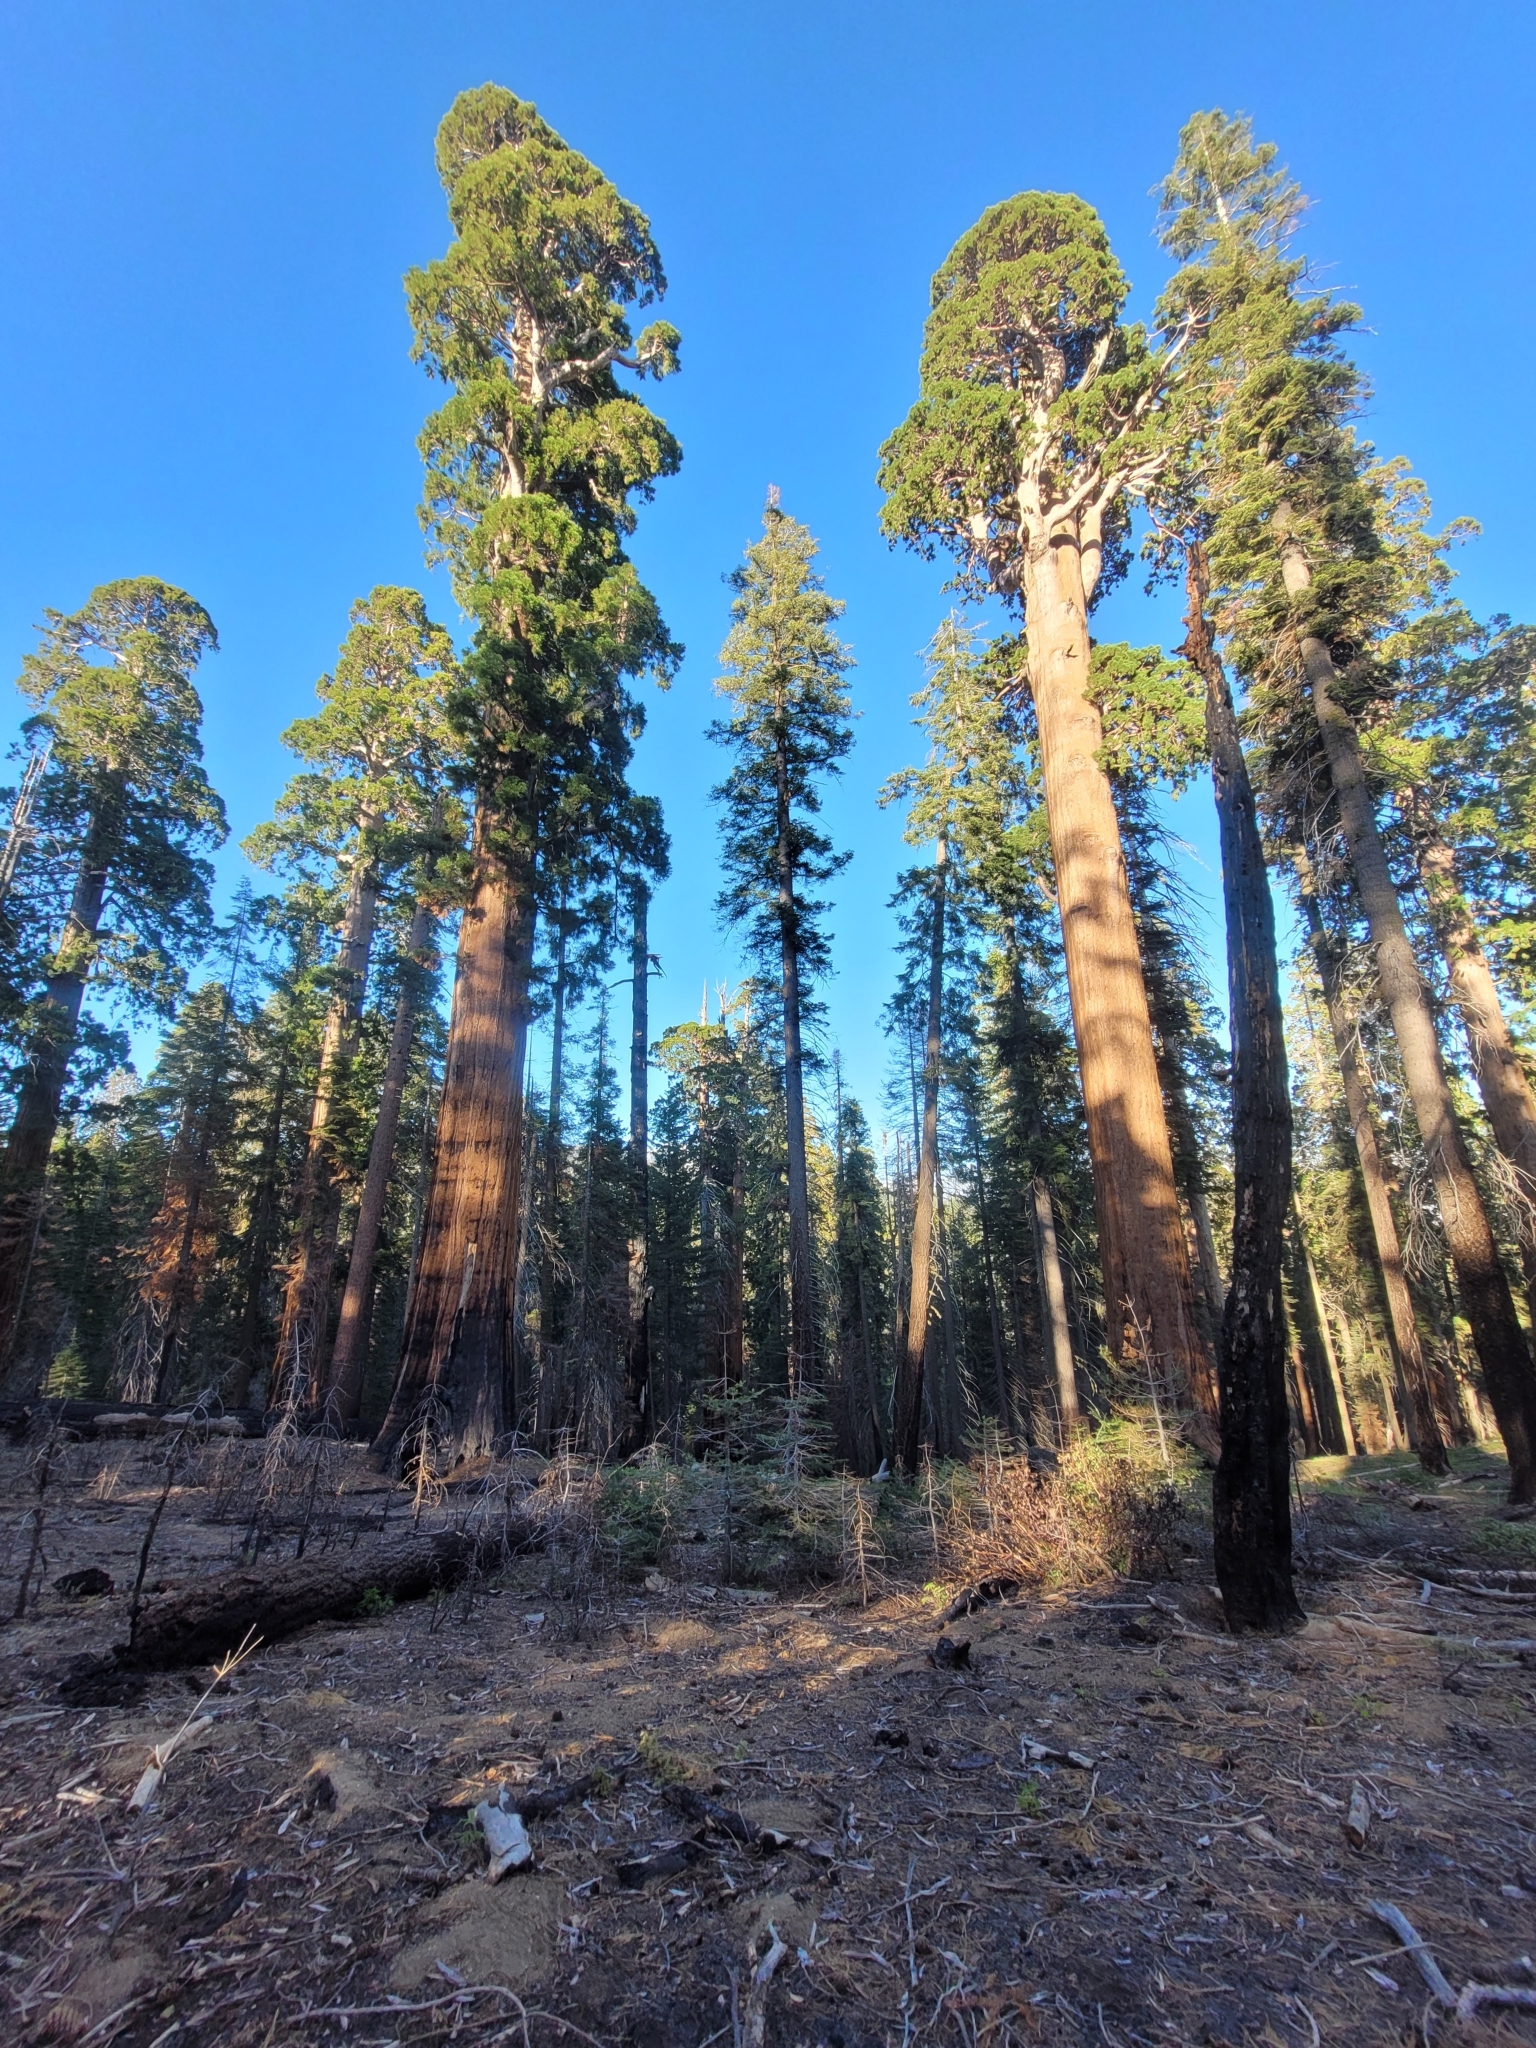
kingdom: Plantae
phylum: Tracheophyta
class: Pinopsida
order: Pinales
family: Cupressaceae
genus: Sequoiadendron
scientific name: Sequoiadendron giganteum
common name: Wellingtonia
